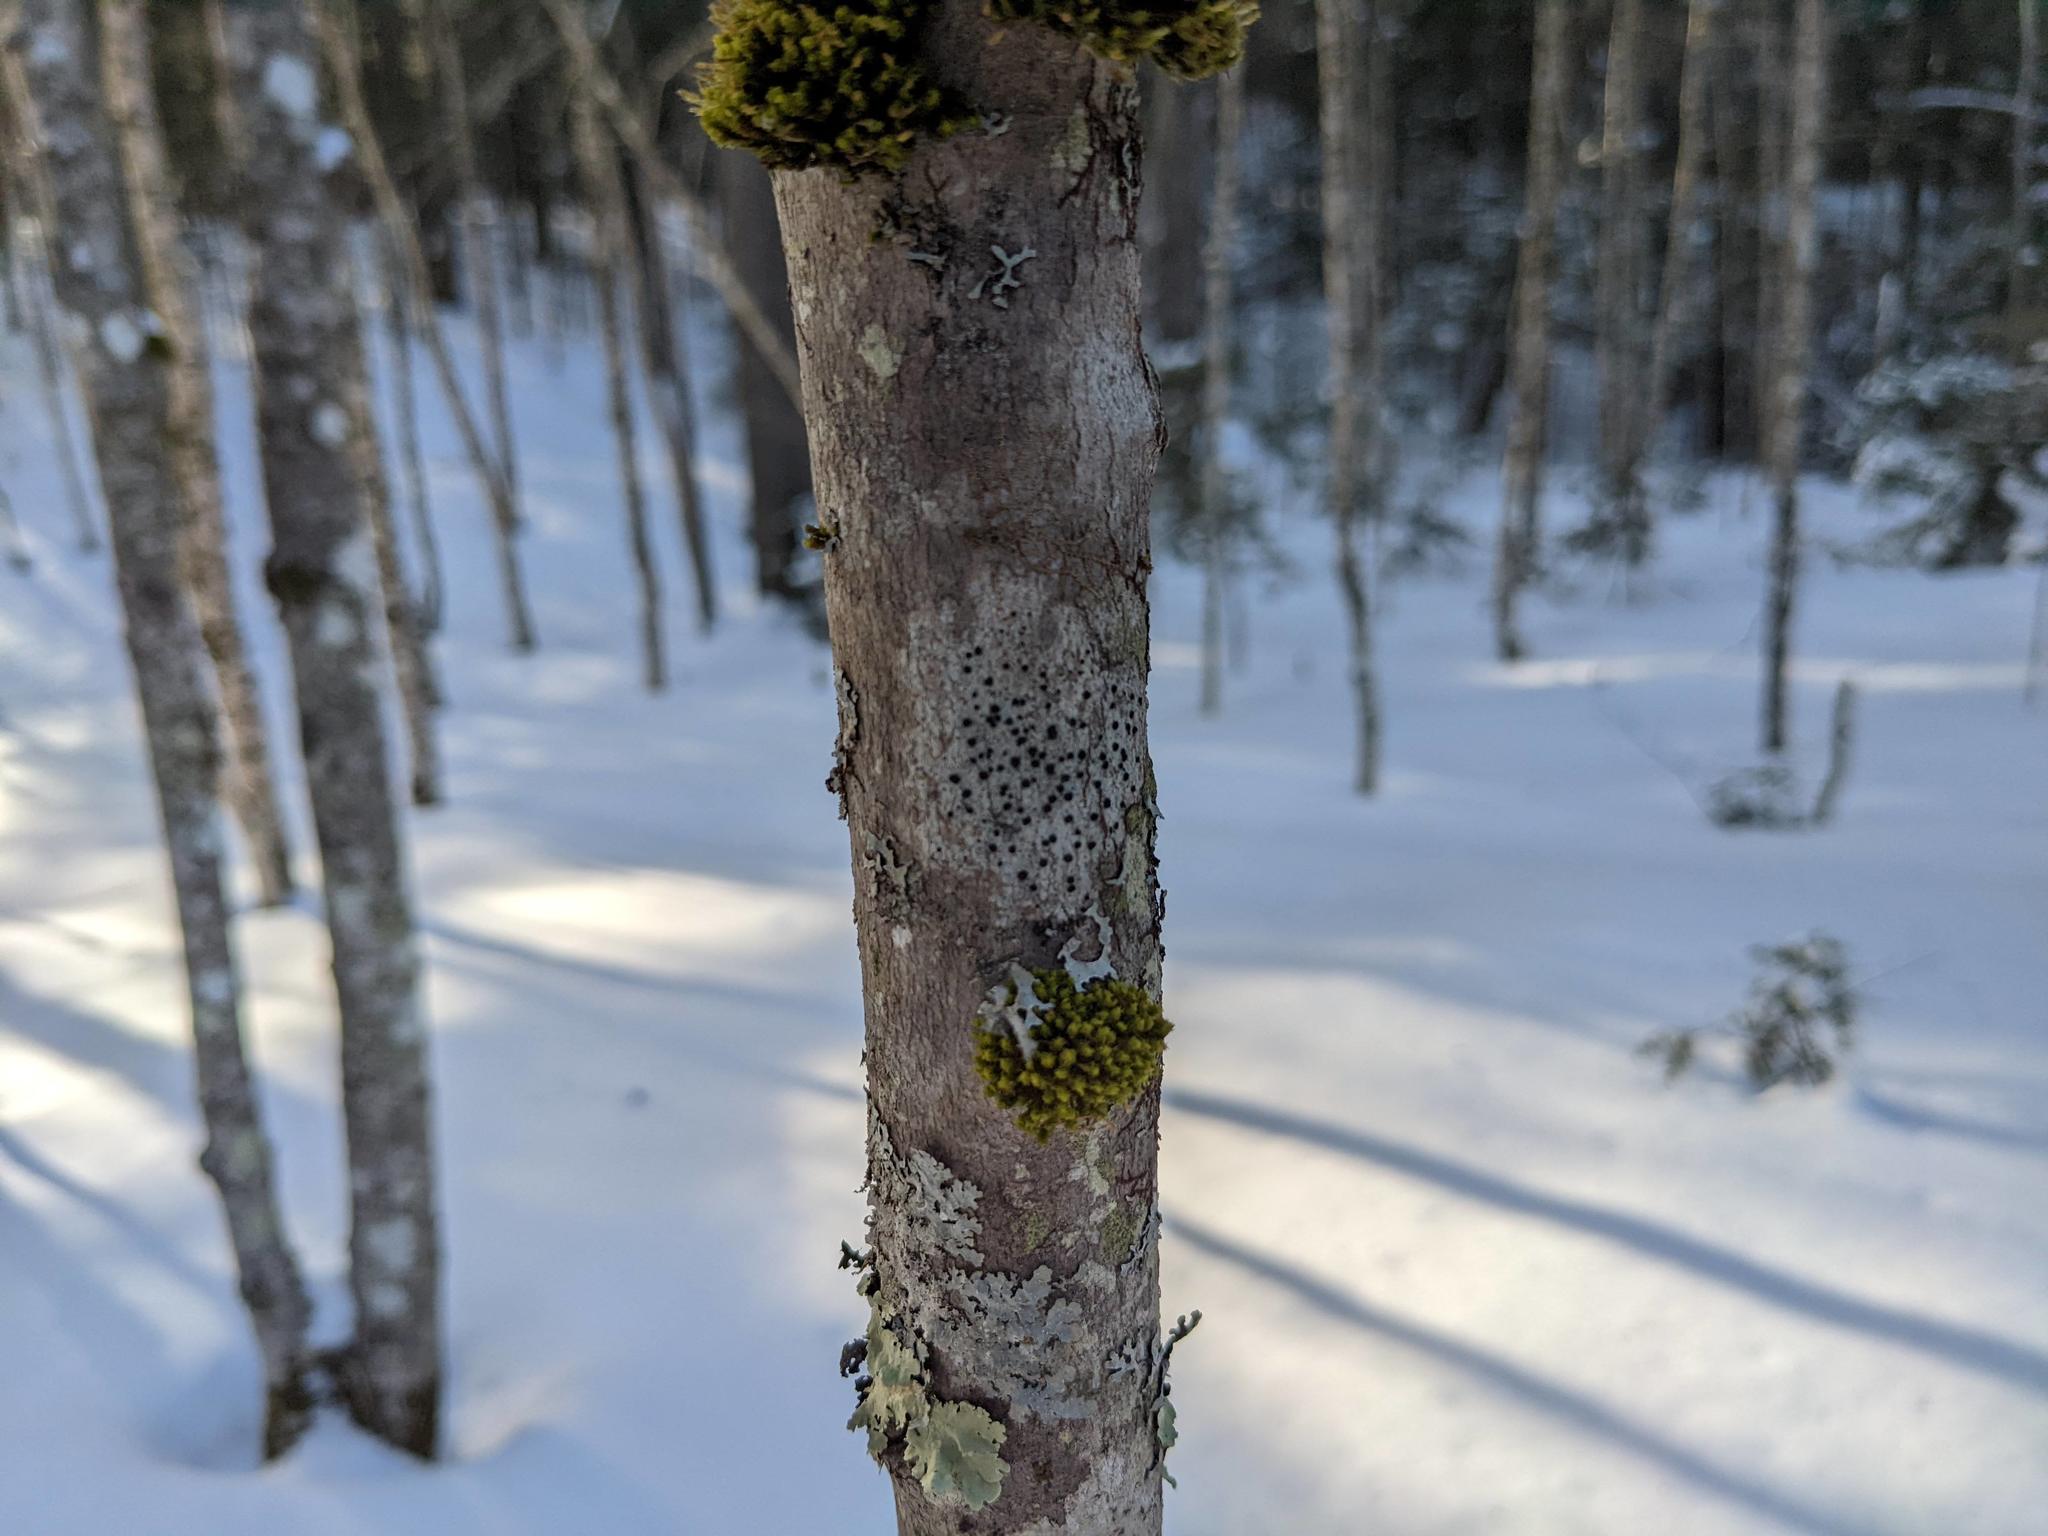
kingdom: Plantae
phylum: Bryophyta
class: Bryopsida
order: Orthotrichales
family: Orthotrichaceae
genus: Ulota
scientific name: Ulota crispa
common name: Crisped pincushion moss
